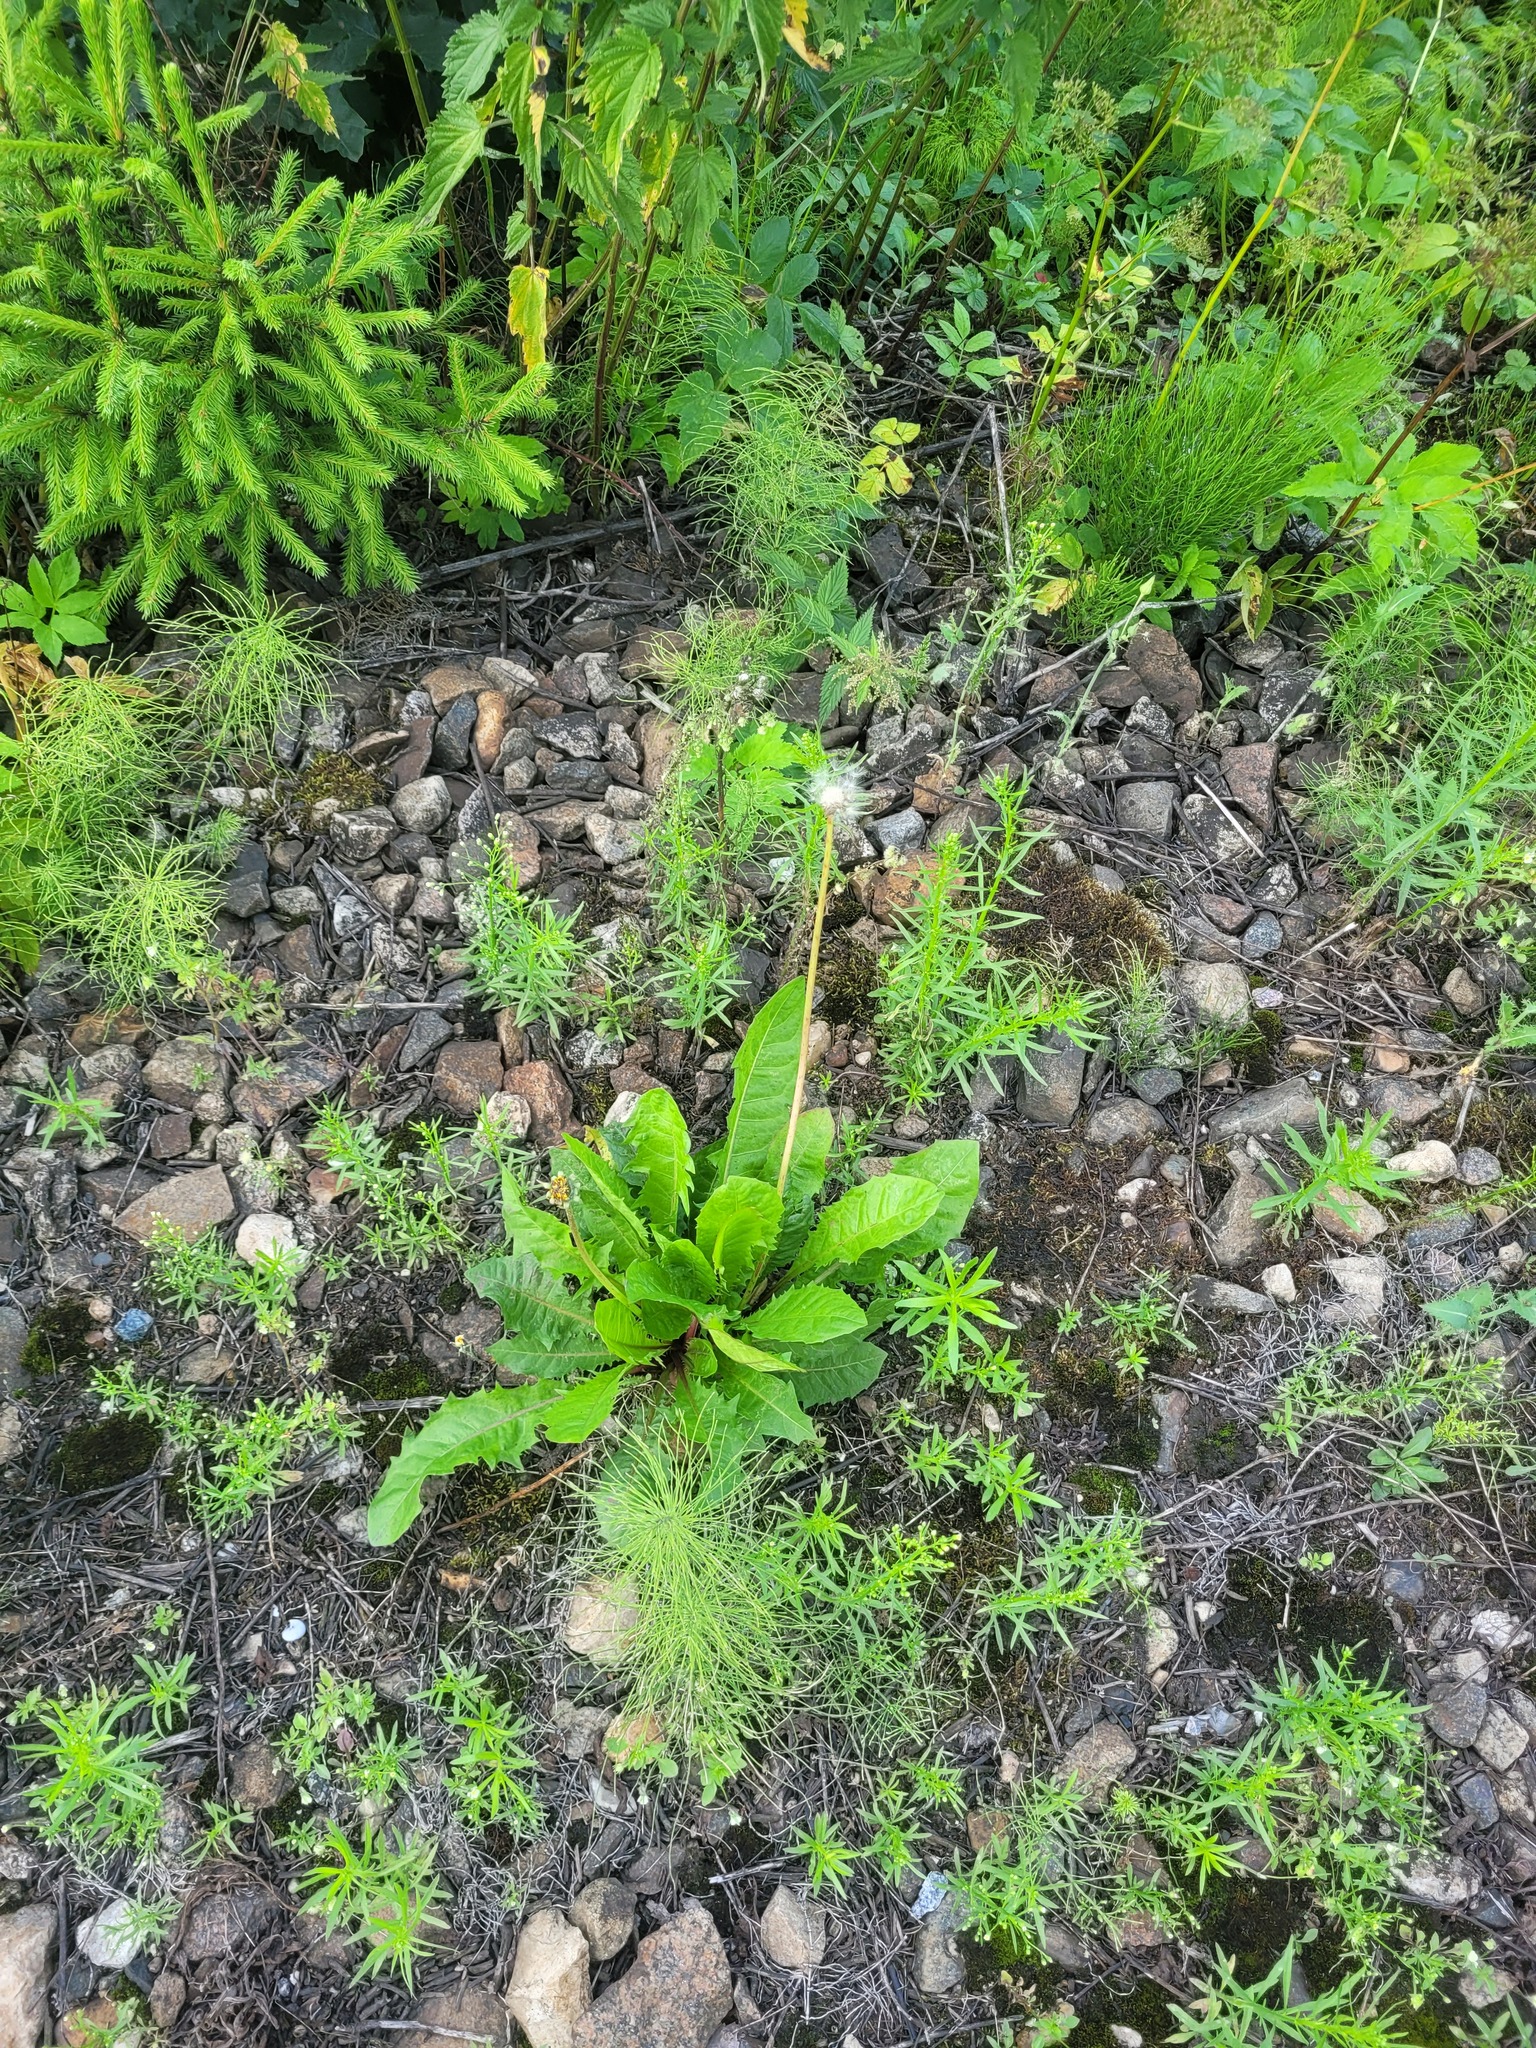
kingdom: Plantae
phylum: Tracheophyta
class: Magnoliopsida
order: Asterales
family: Asteraceae
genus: Taraxacum
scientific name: Taraxacum officinale
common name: Common dandelion
